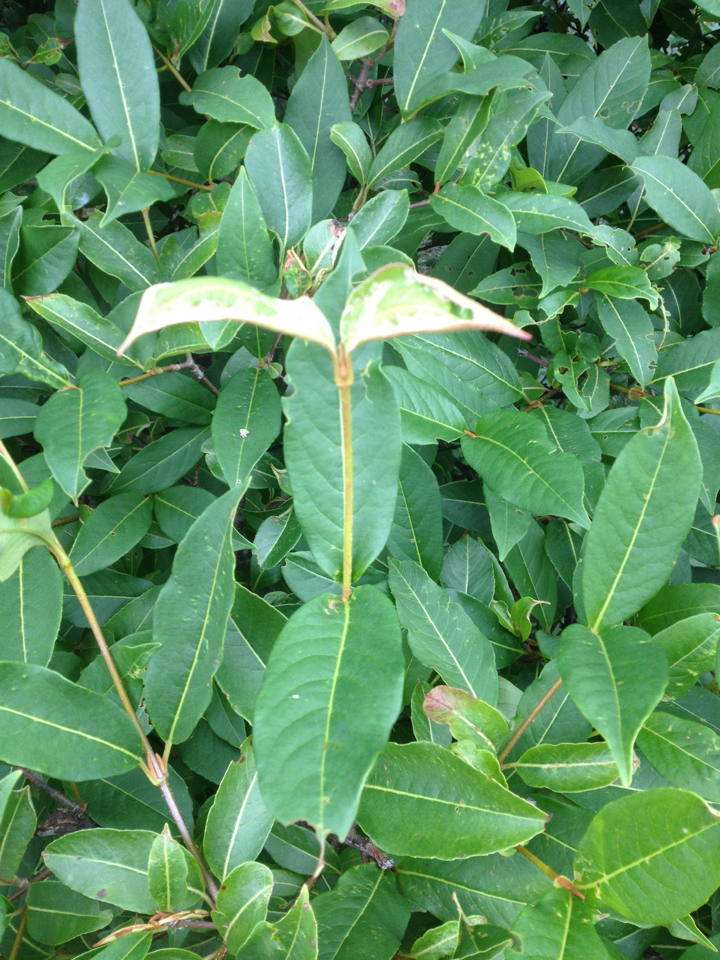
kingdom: Plantae
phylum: Tracheophyta
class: Magnoliopsida
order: Dipsacales
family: Viburnaceae
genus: Viburnum
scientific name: Viburnum cassinoides
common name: Swamp haw
